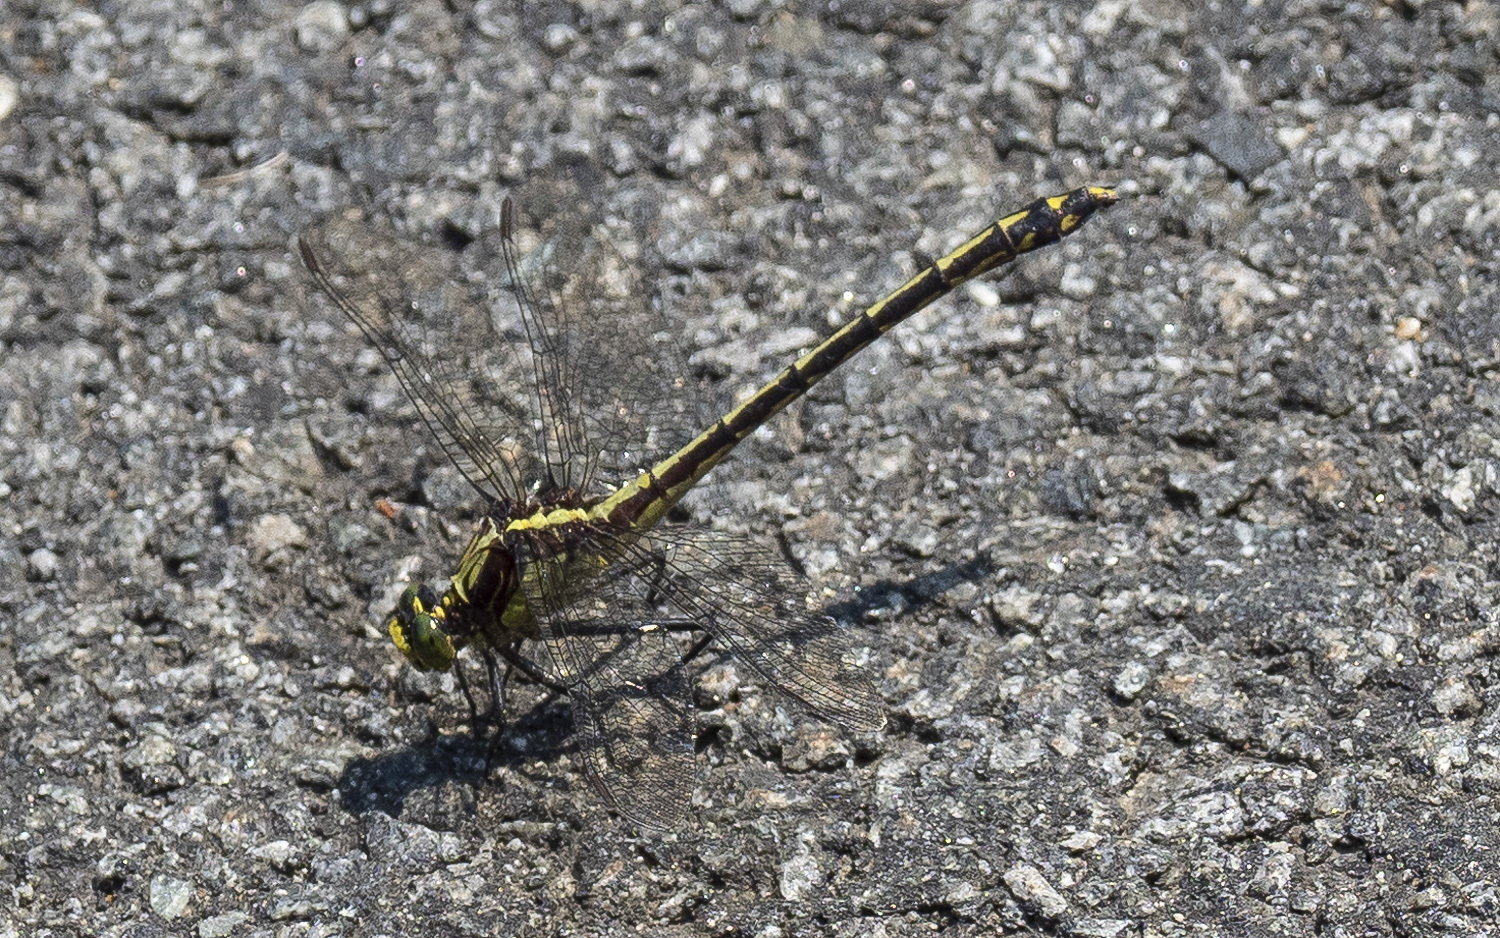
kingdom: Animalia
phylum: Arthropoda
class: Insecta
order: Odonata
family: Gomphidae
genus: Dromogomphus
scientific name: Dromogomphus spinosus
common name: Black-shouldered spinyleg
